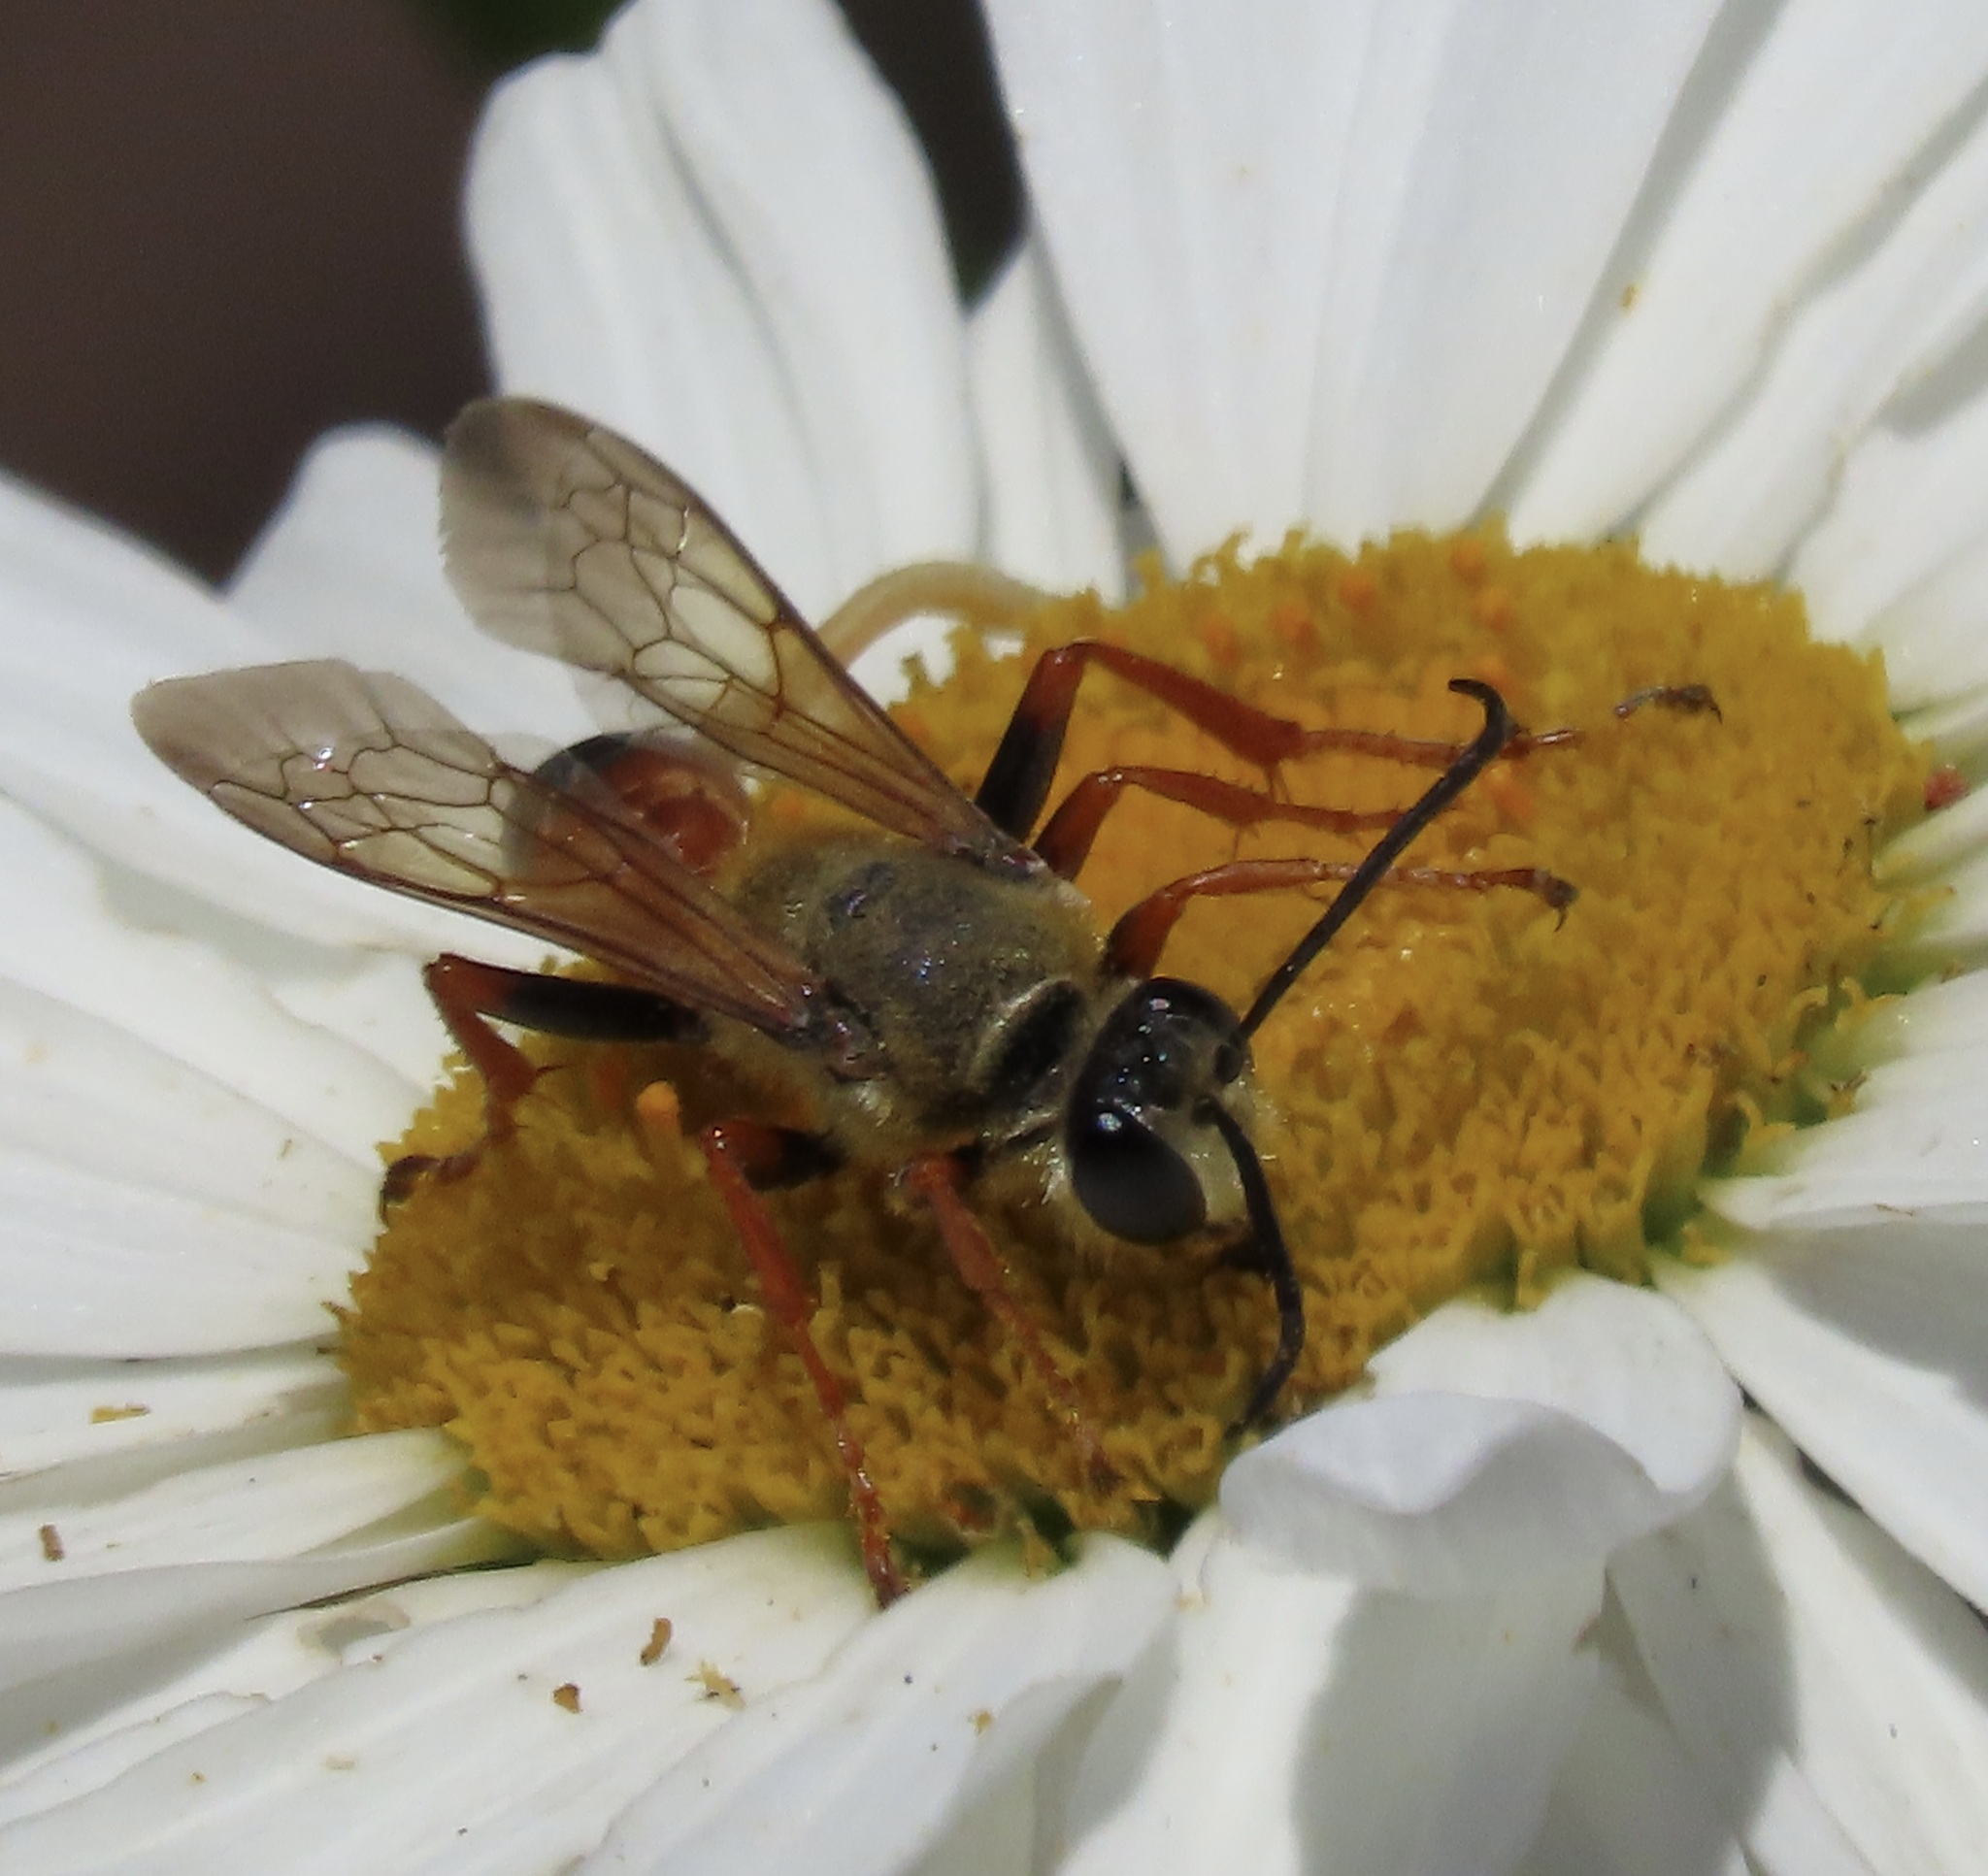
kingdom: Animalia
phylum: Arthropoda
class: Insecta
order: Hymenoptera
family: Sphecidae
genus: Sphex
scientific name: Sphex ichneumoneus
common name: Great golden digger wasp
